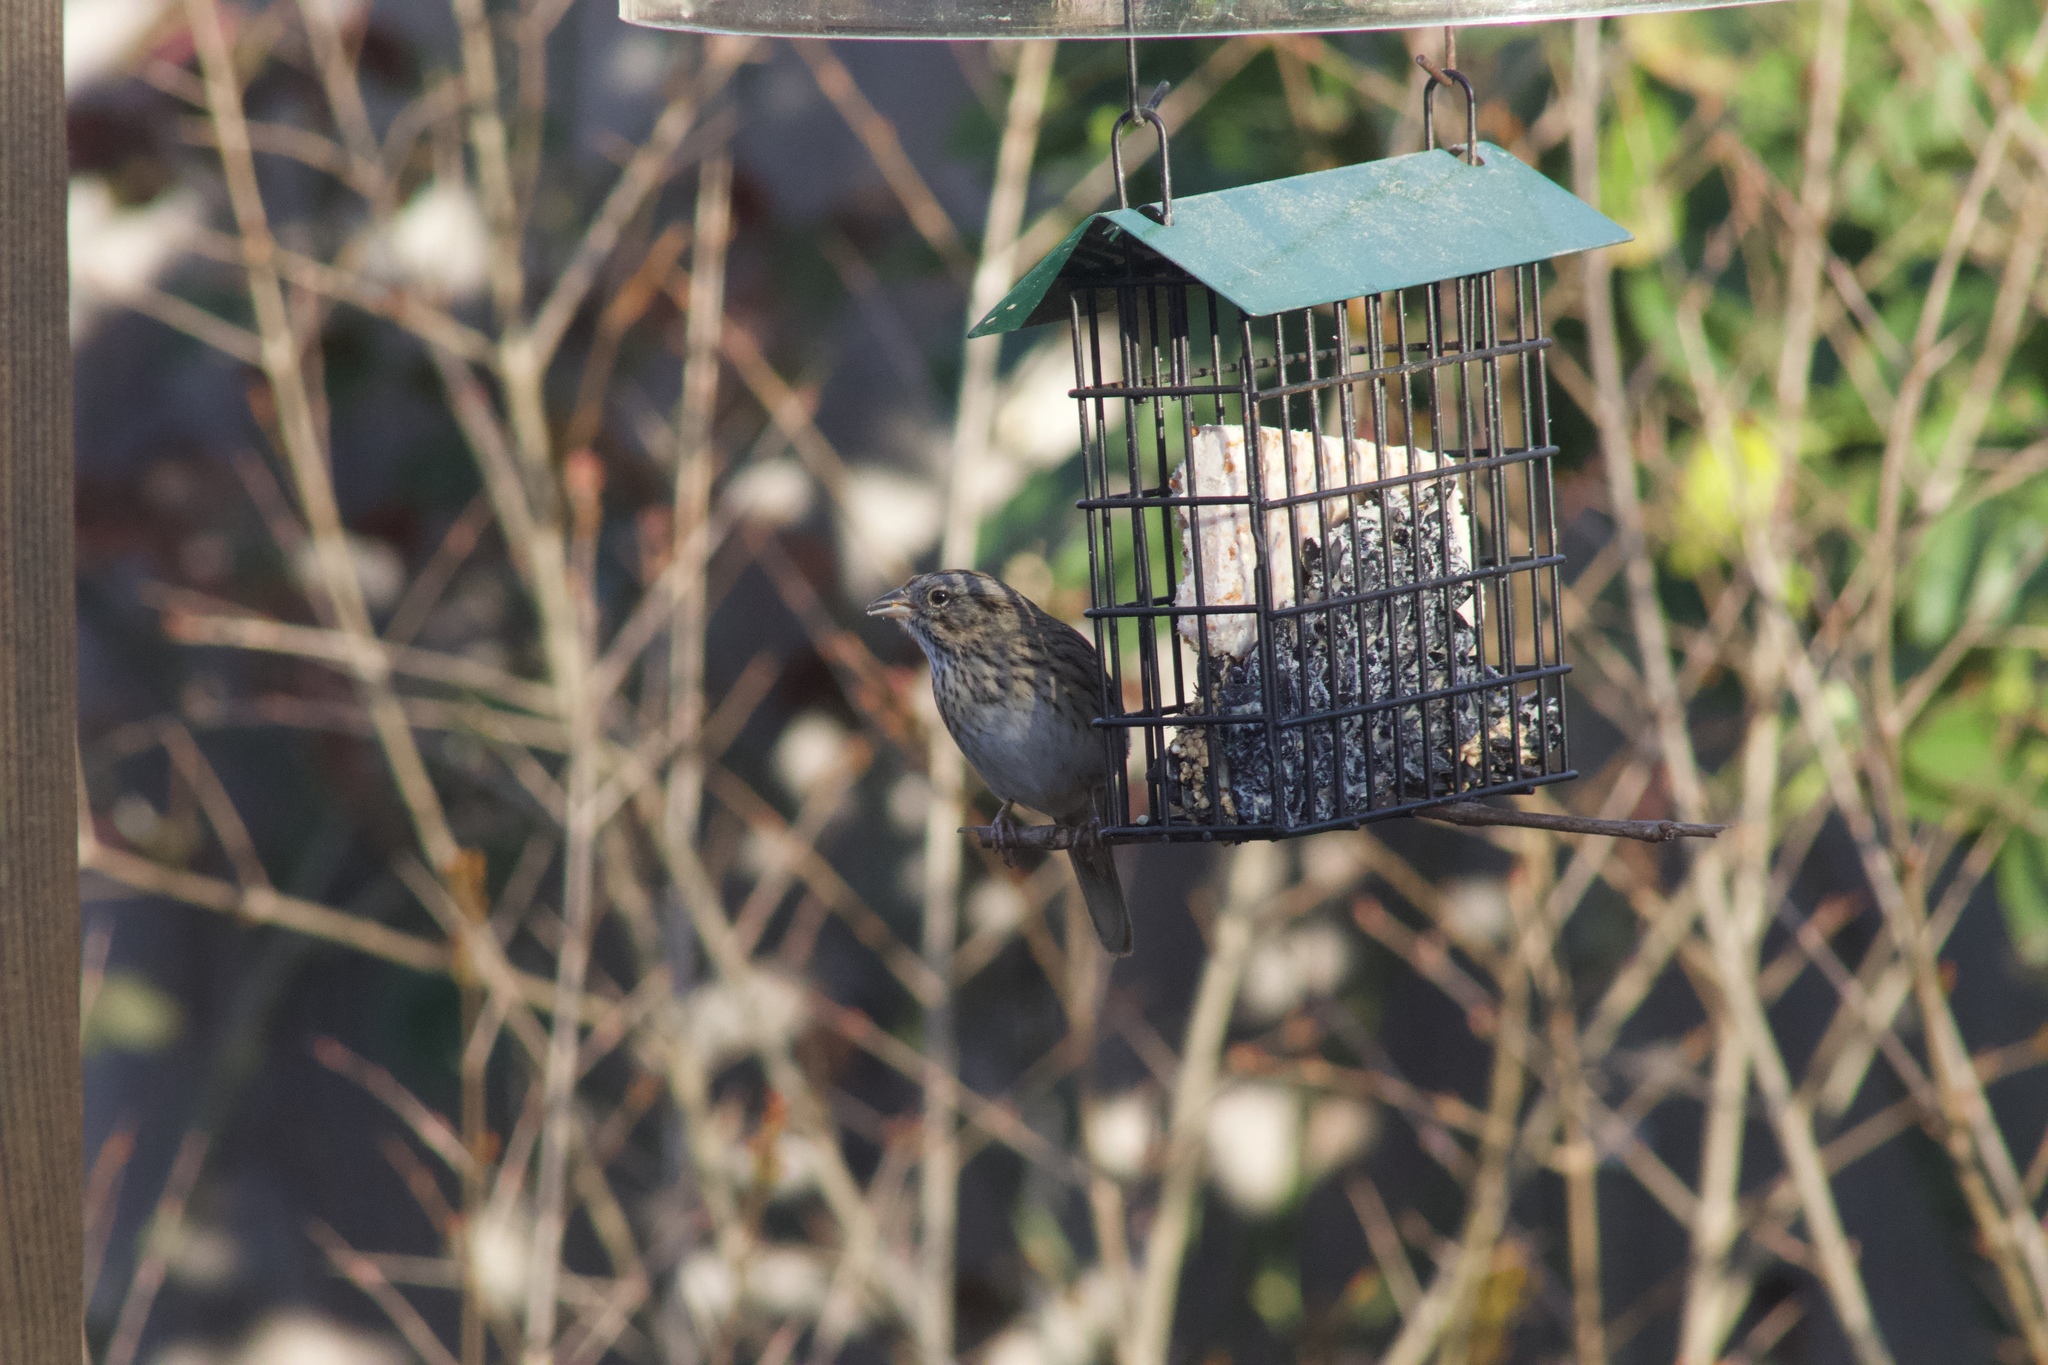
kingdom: Animalia
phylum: Chordata
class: Aves
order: Passeriformes
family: Passerellidae
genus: Melospiza
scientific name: Melospiza lincolnii
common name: Lincoln's sparrow
